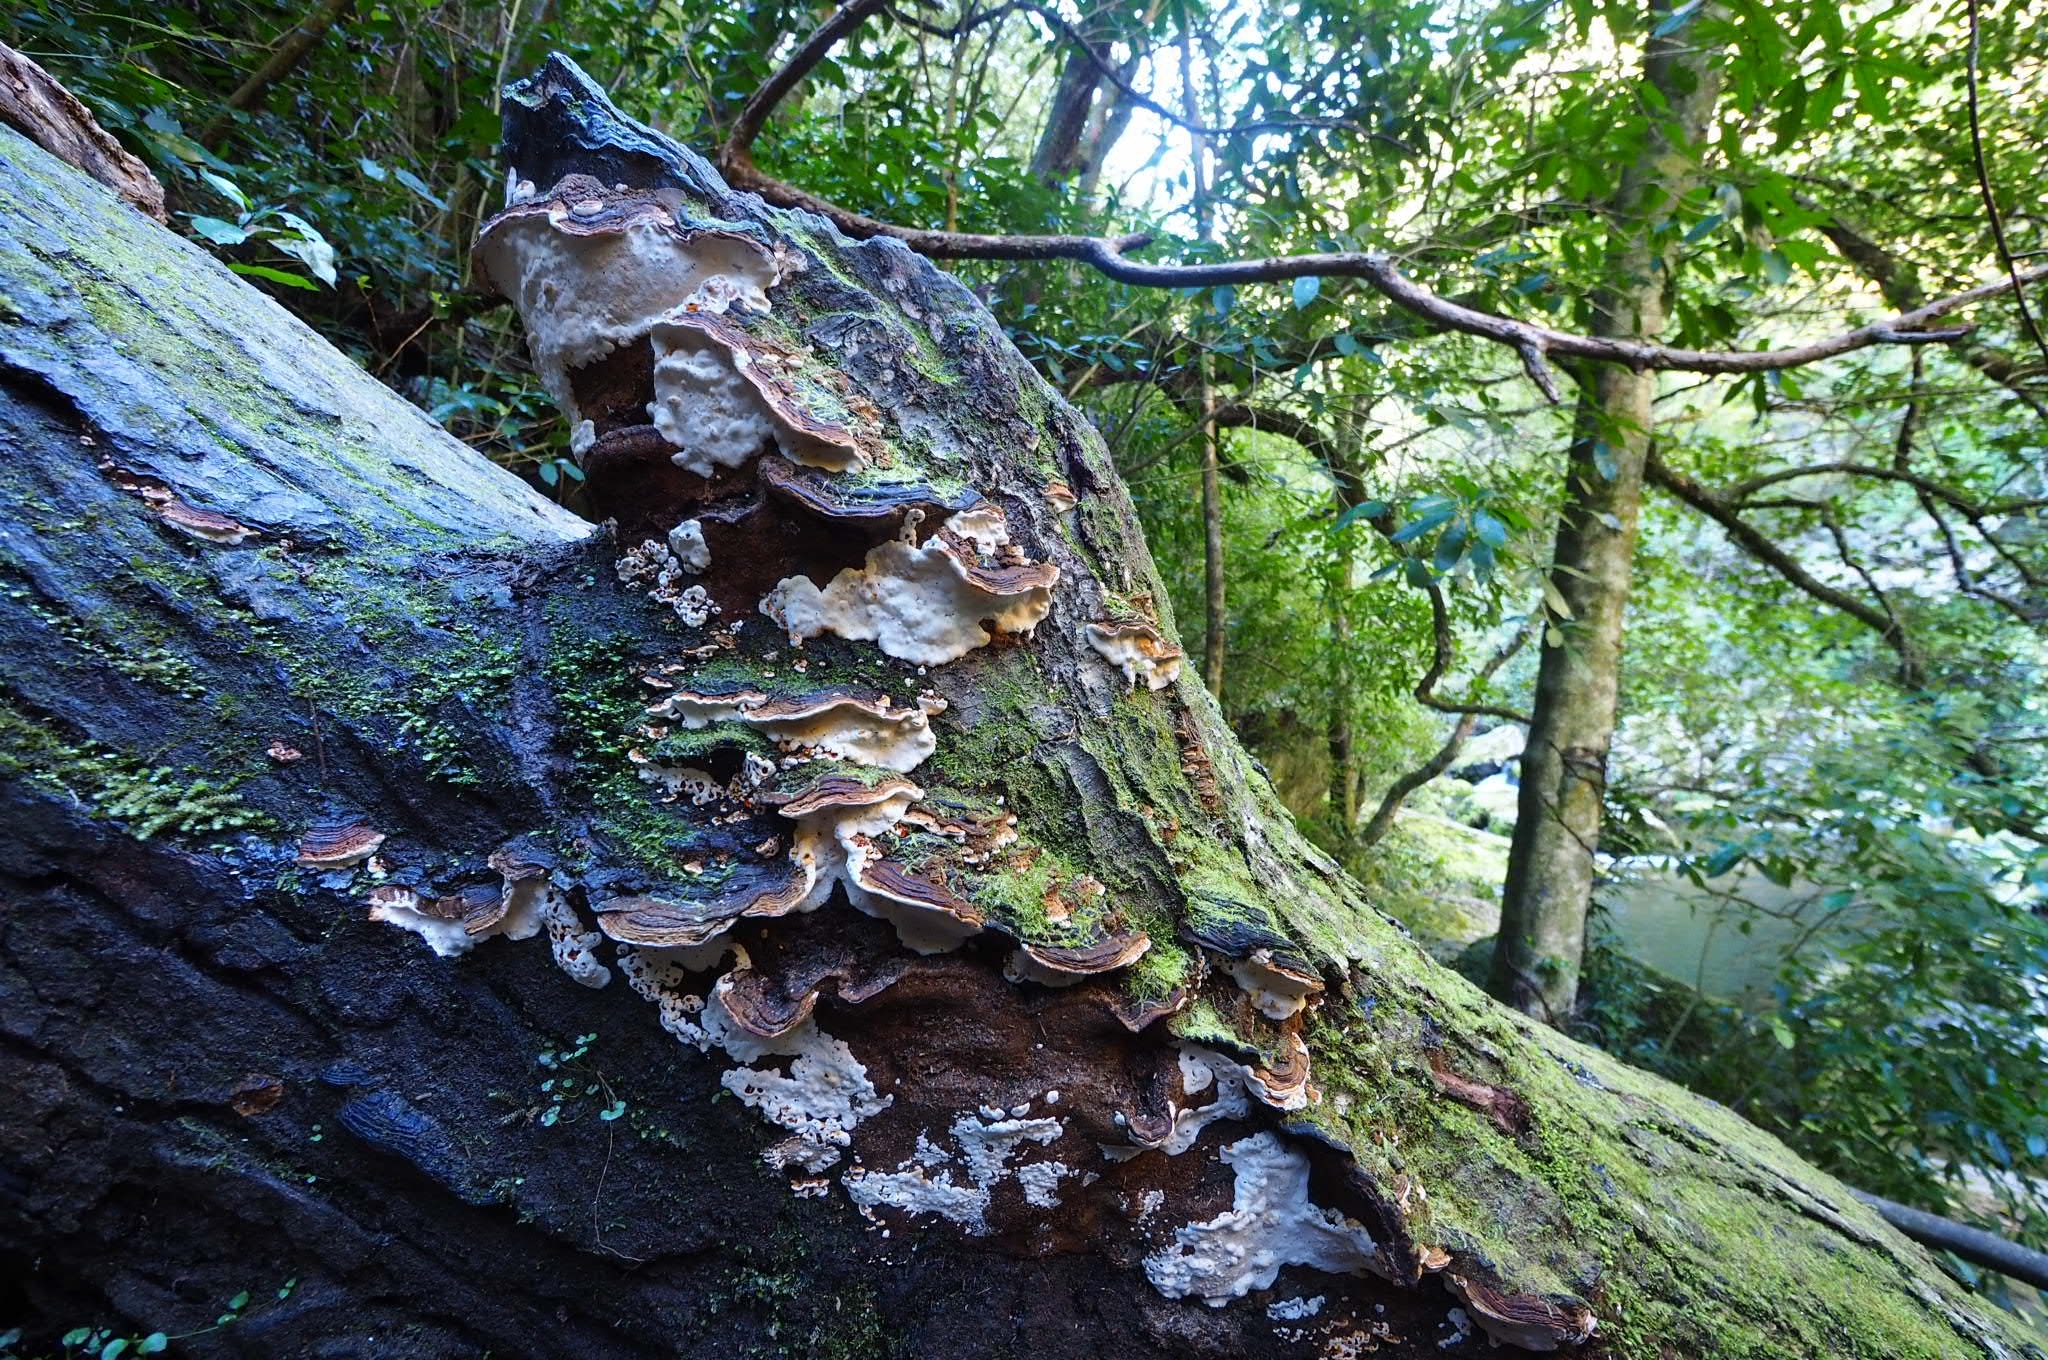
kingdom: Fungi
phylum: Basidiomycota
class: Agaricomycetes
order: Polyporales
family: Polyporaceae
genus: Australoporus
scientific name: Australoporus tasmanicus
